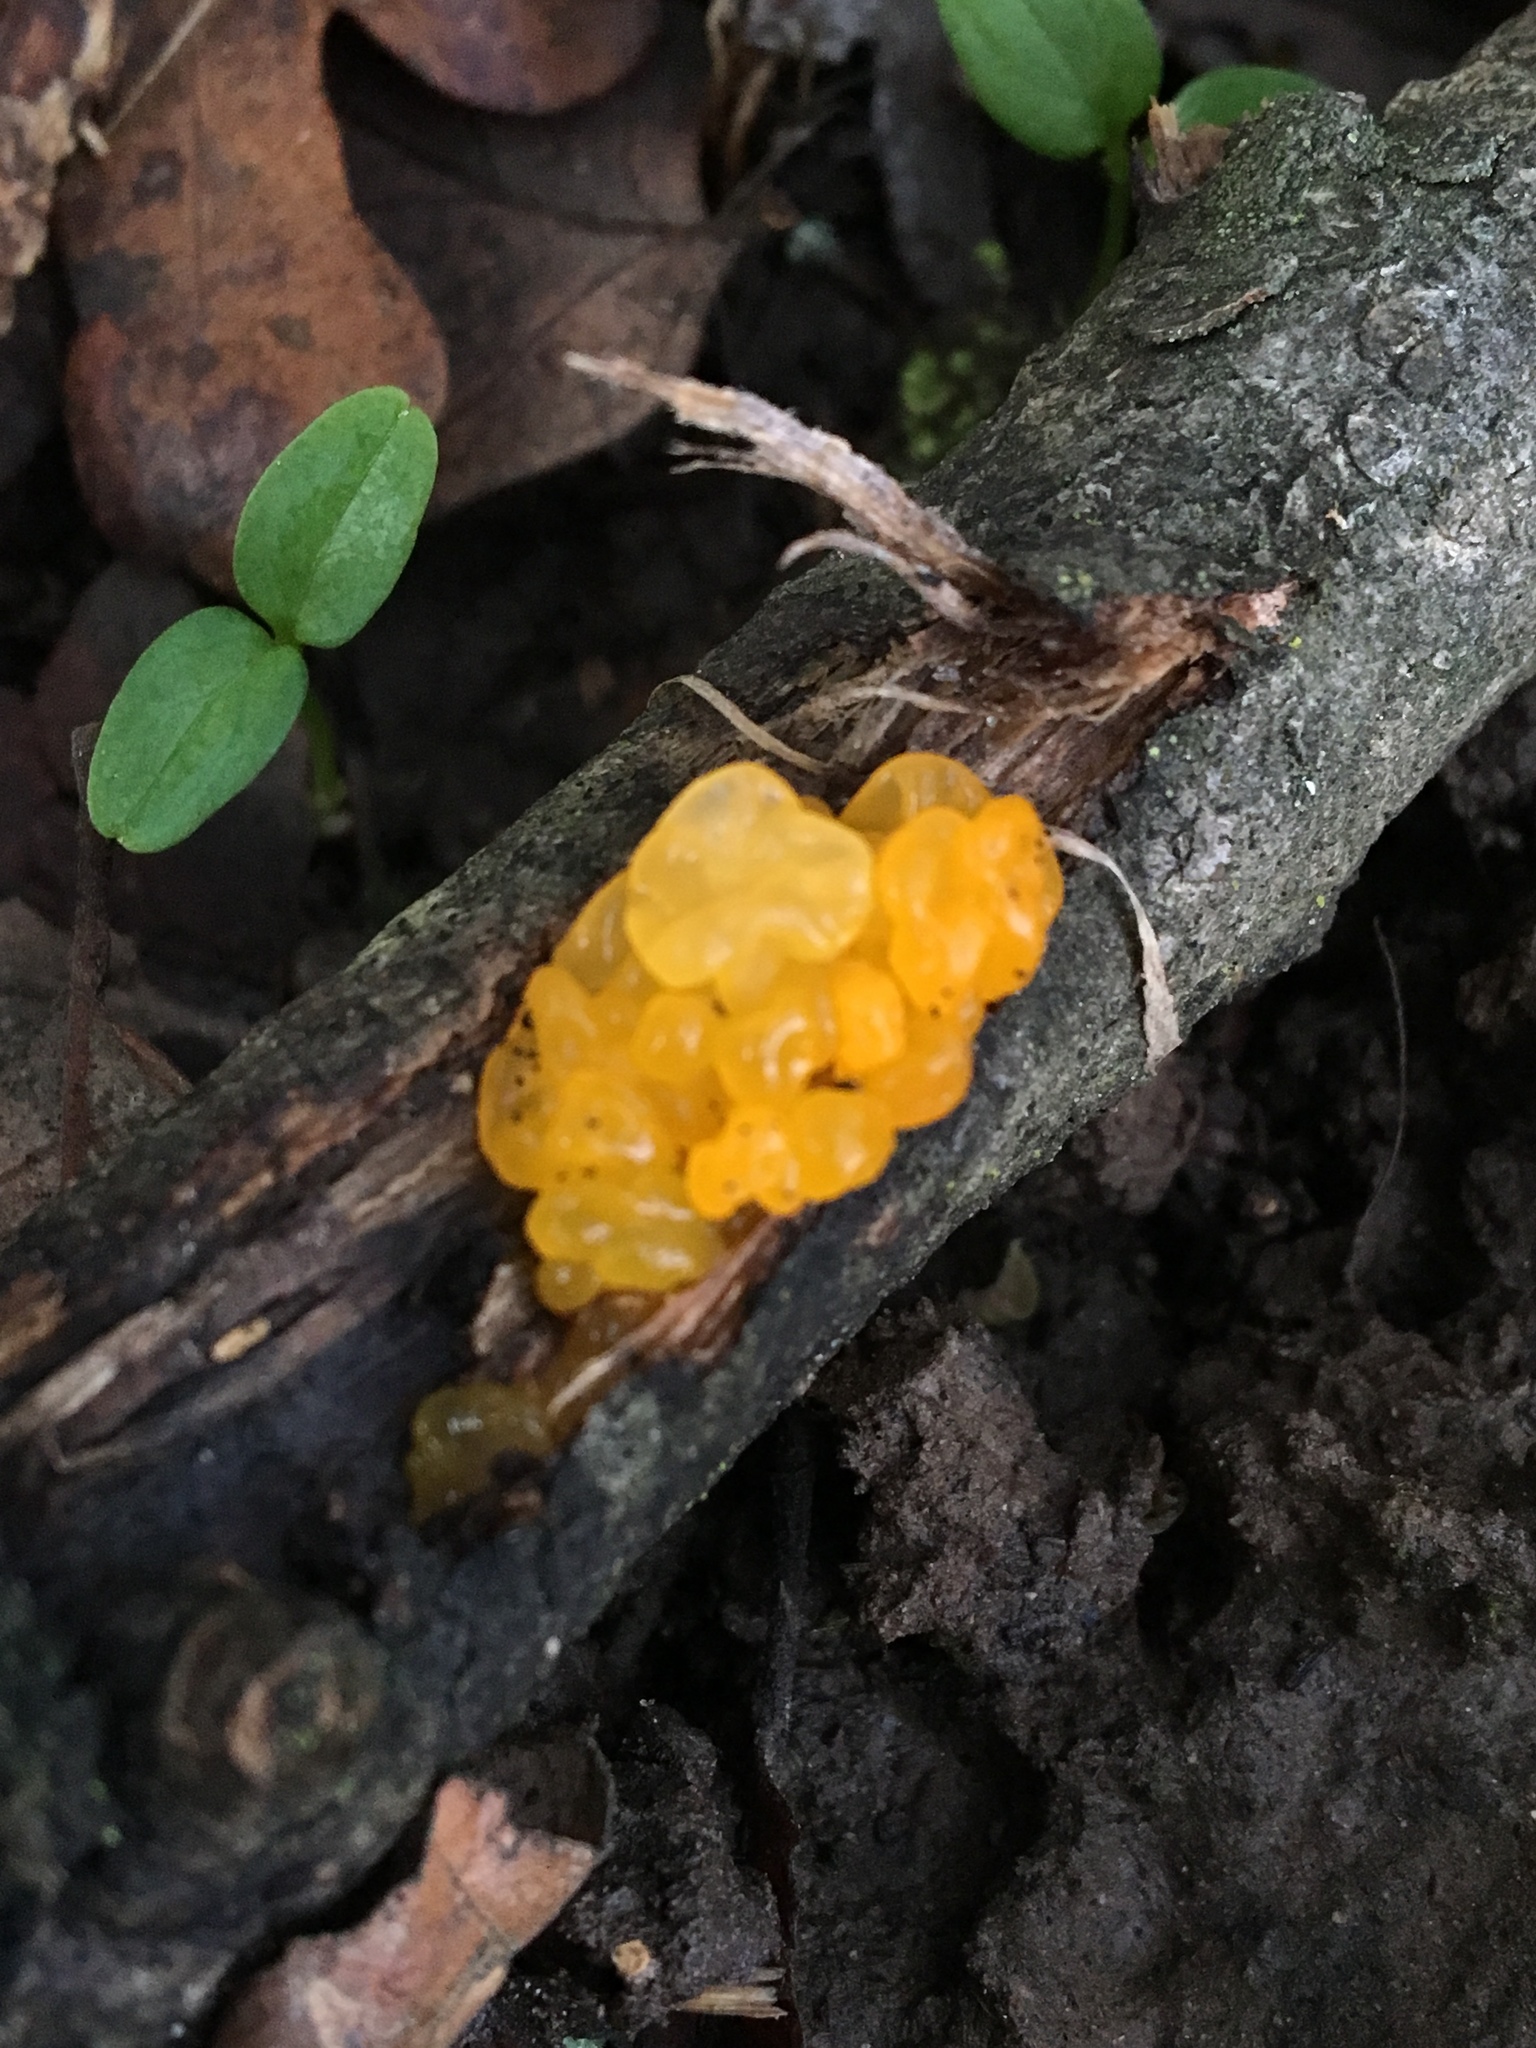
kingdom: Fungi
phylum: Basidiomycota
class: Tremellomycetes
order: Tremellales
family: Tremellaceae
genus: Tremella
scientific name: Tremella mesenterica
